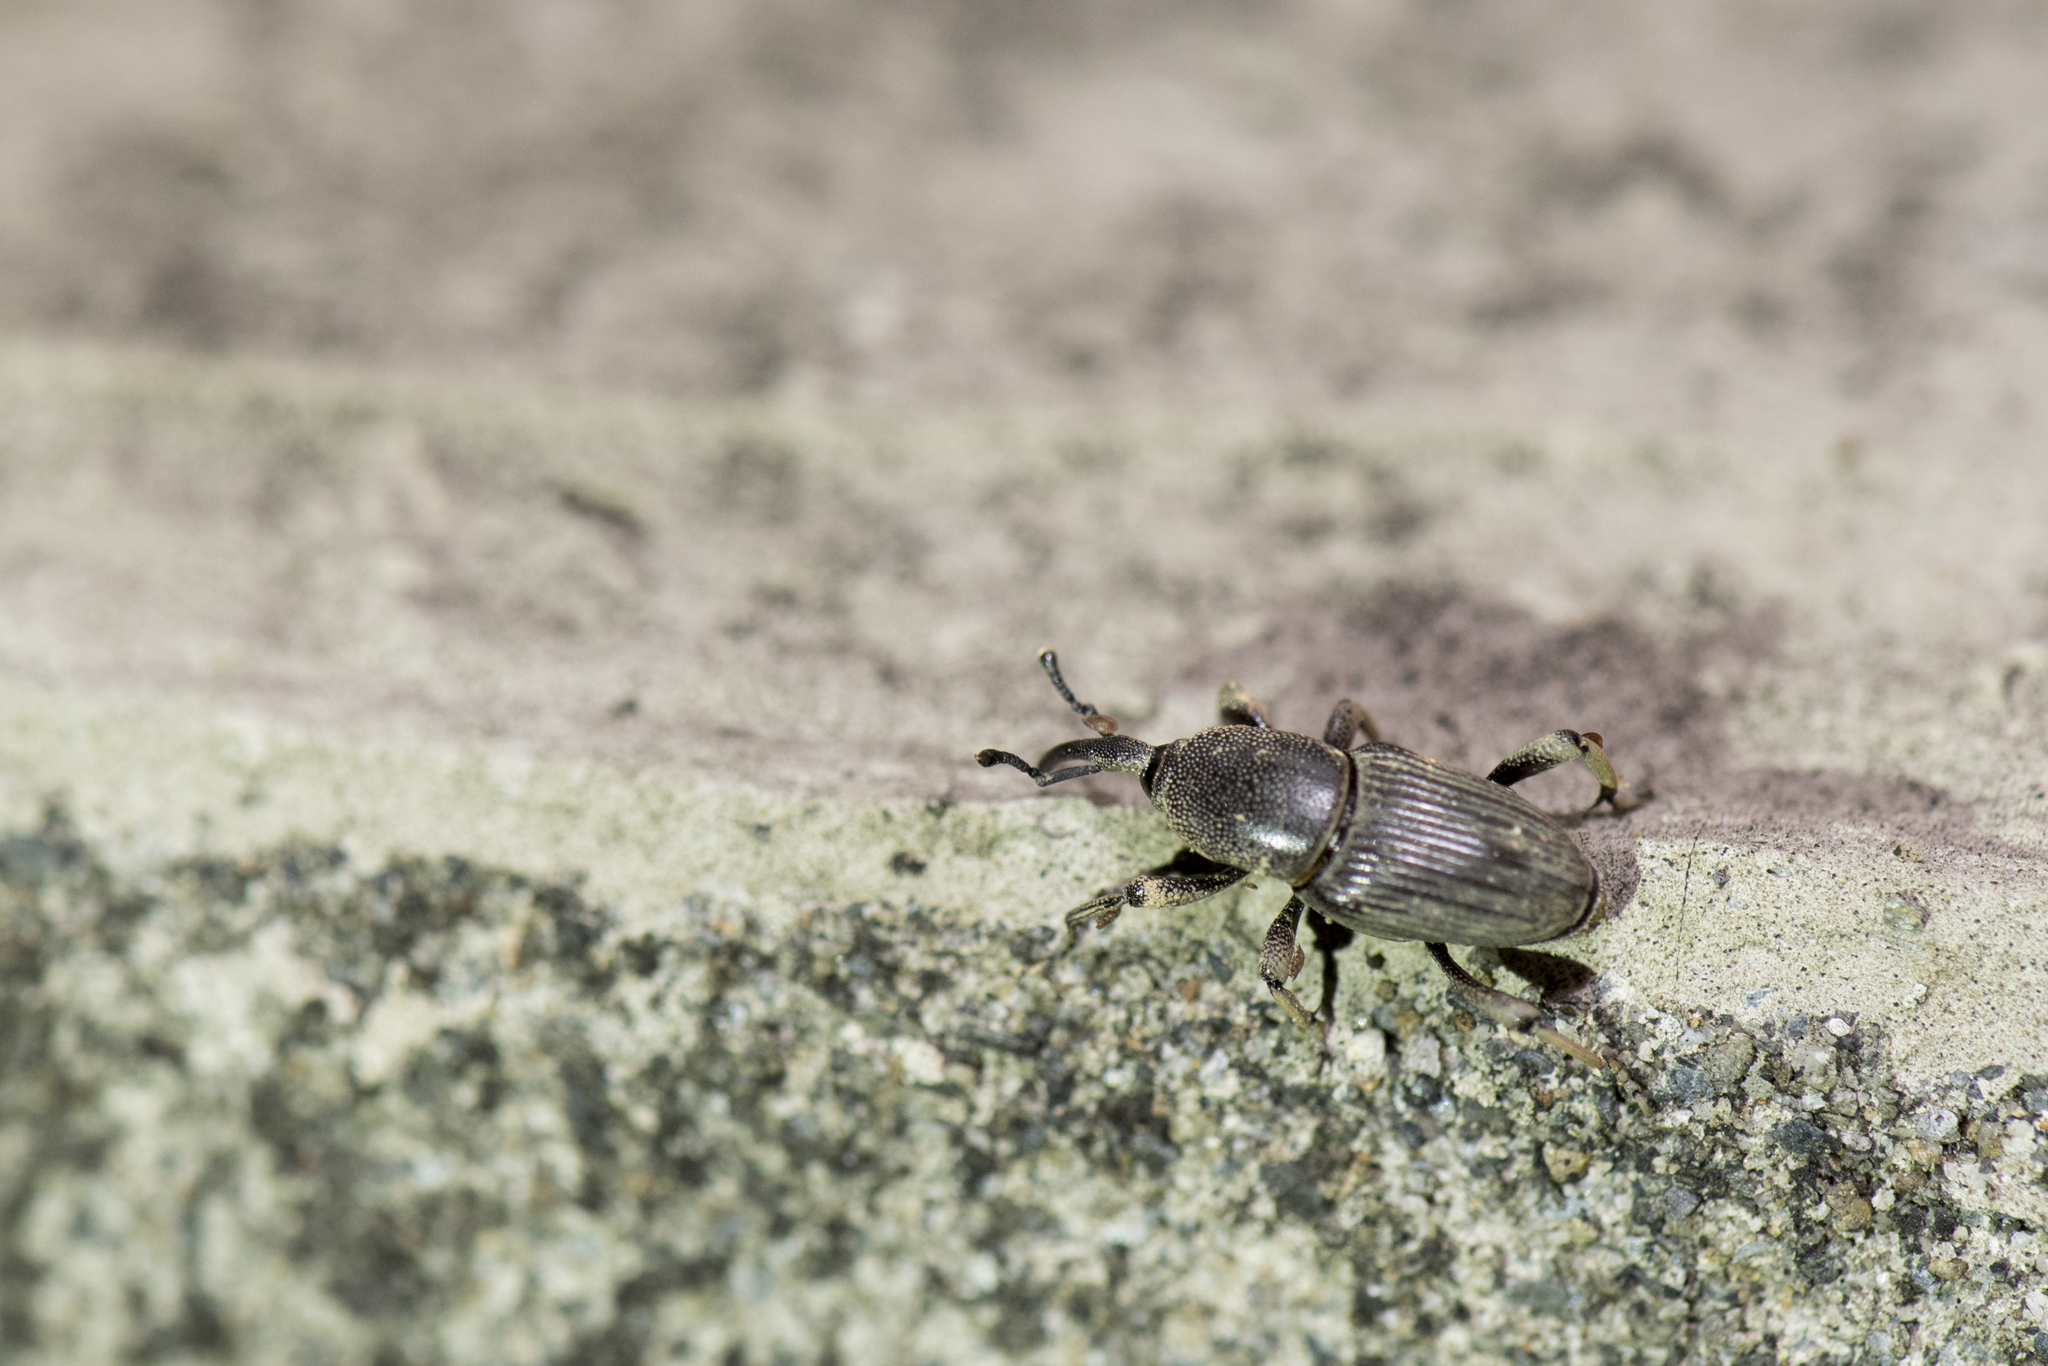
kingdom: Animalia
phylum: Arthropoda
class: Insecta
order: Coleoptera
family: Dryophthoridae
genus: Cosmopolites
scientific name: Cosmopolites sordidus
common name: Palm weevil
